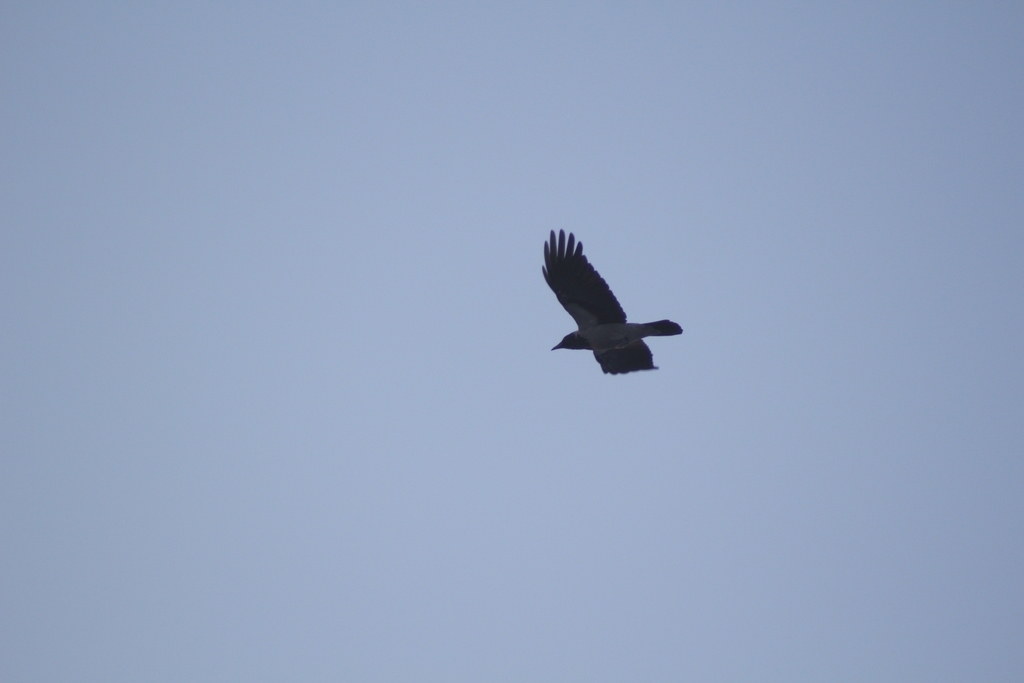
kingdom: Animalia
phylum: Chordata
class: Aves
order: Passeriformes
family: Corvidae
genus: Corvus
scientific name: Corvus cornix
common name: Hooded crow
